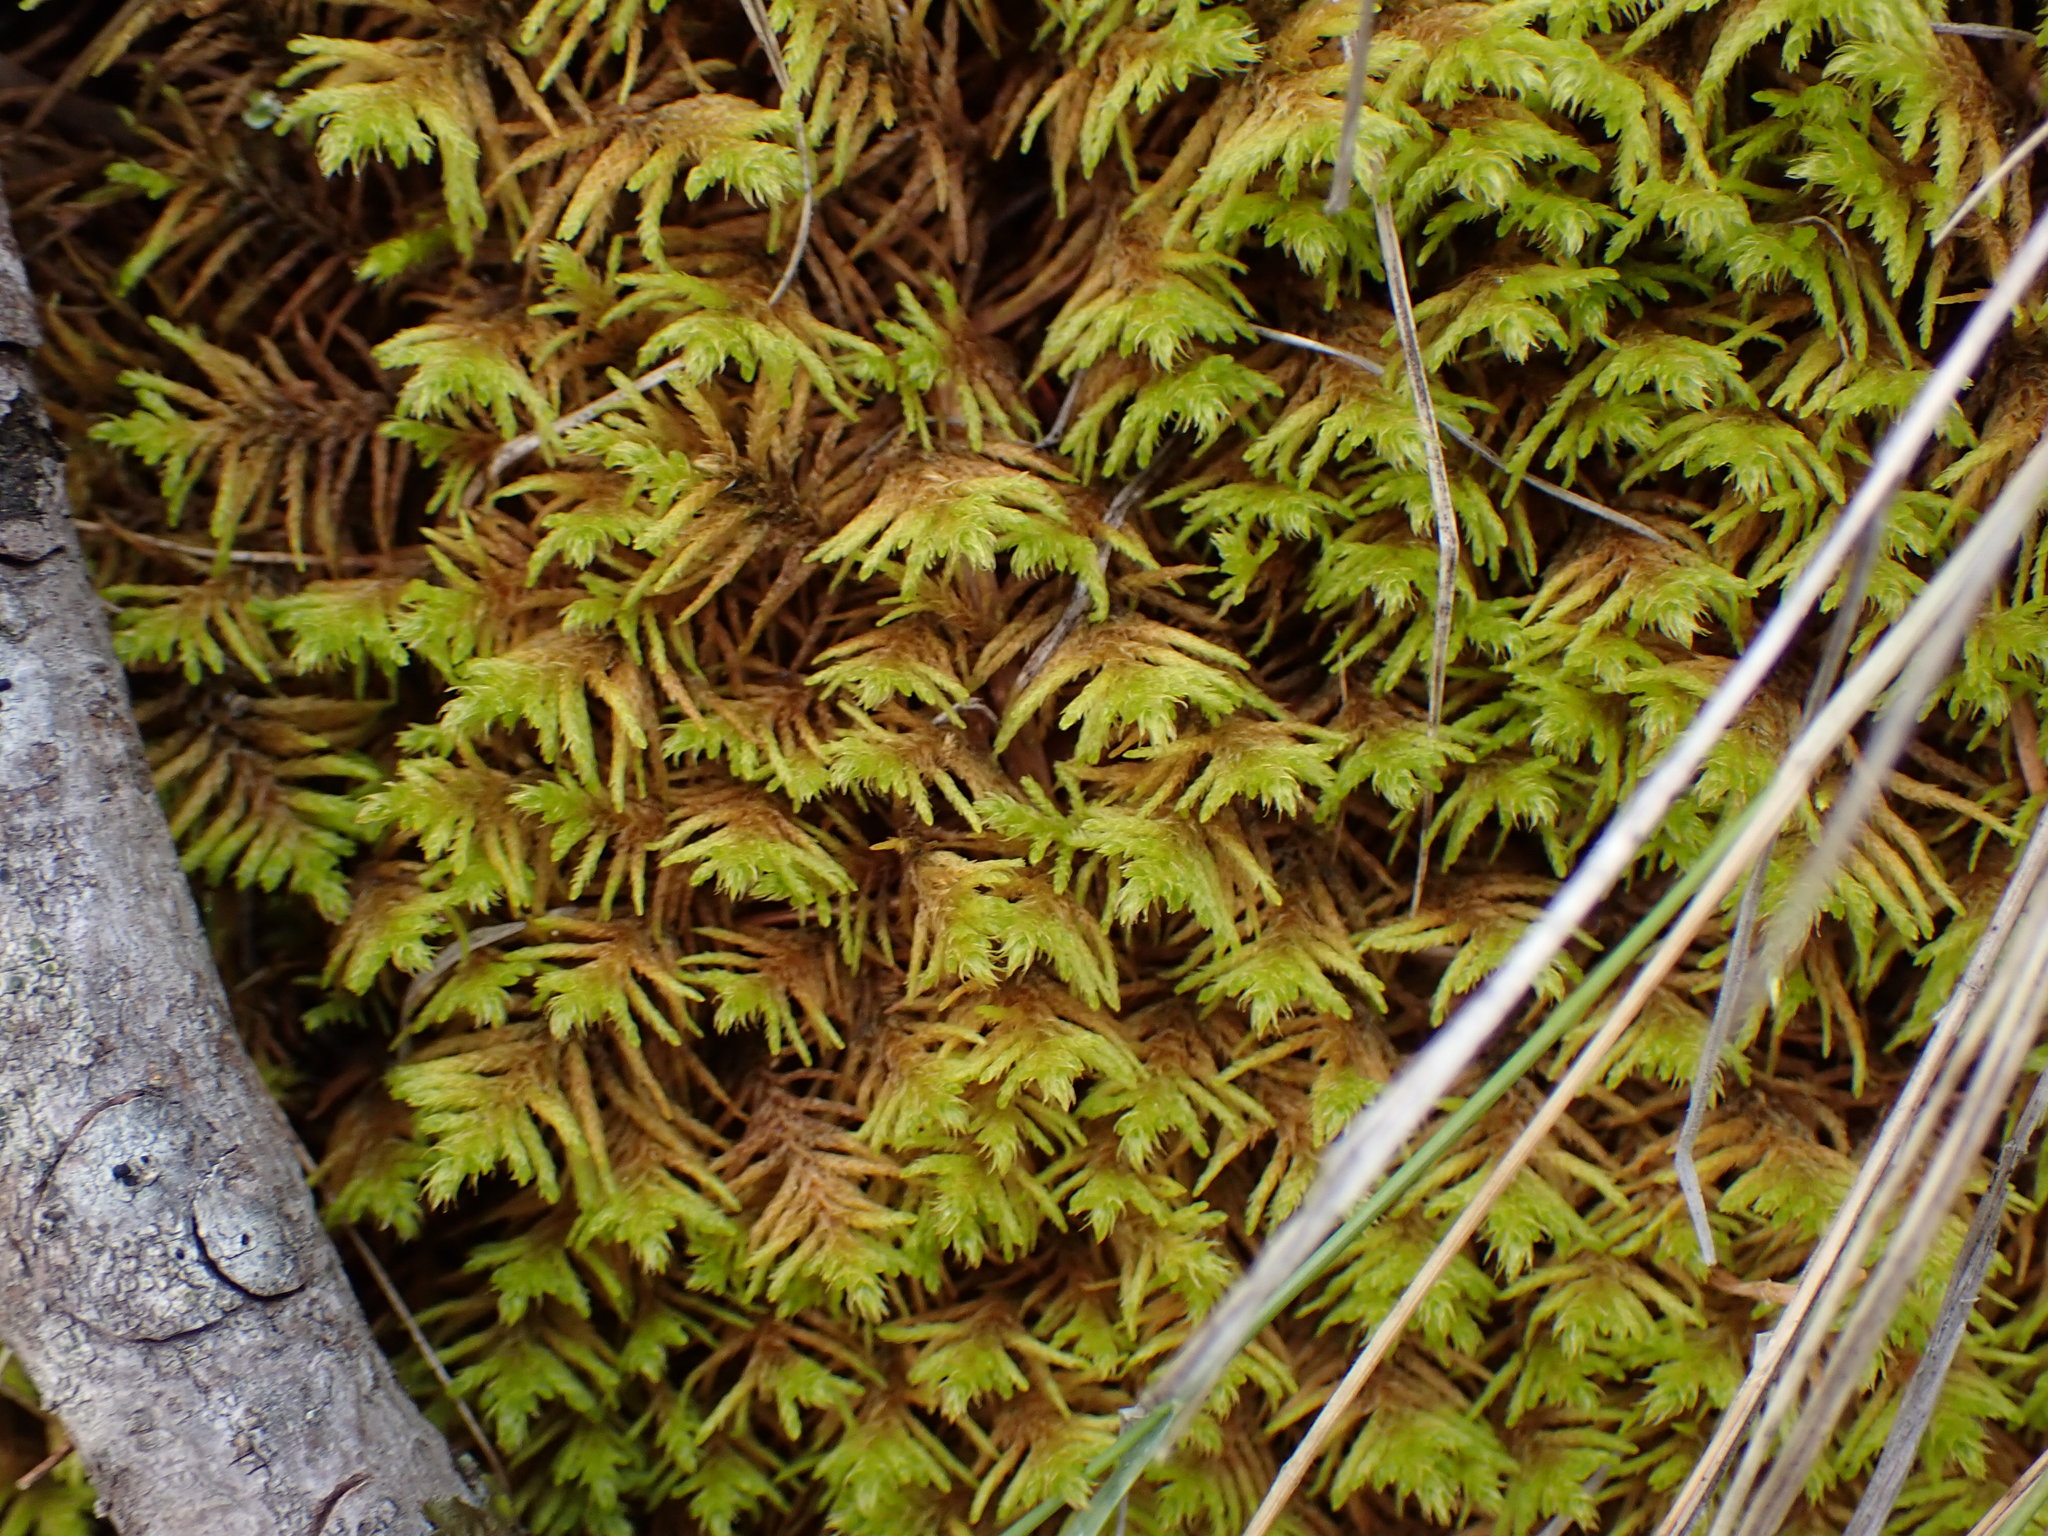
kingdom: Plantae
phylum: Bryophyta
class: Bryopsida
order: Hypnales
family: Thuidiaceae
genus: Abietinella
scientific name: Abietinella abietina
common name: Wiry fern moss
